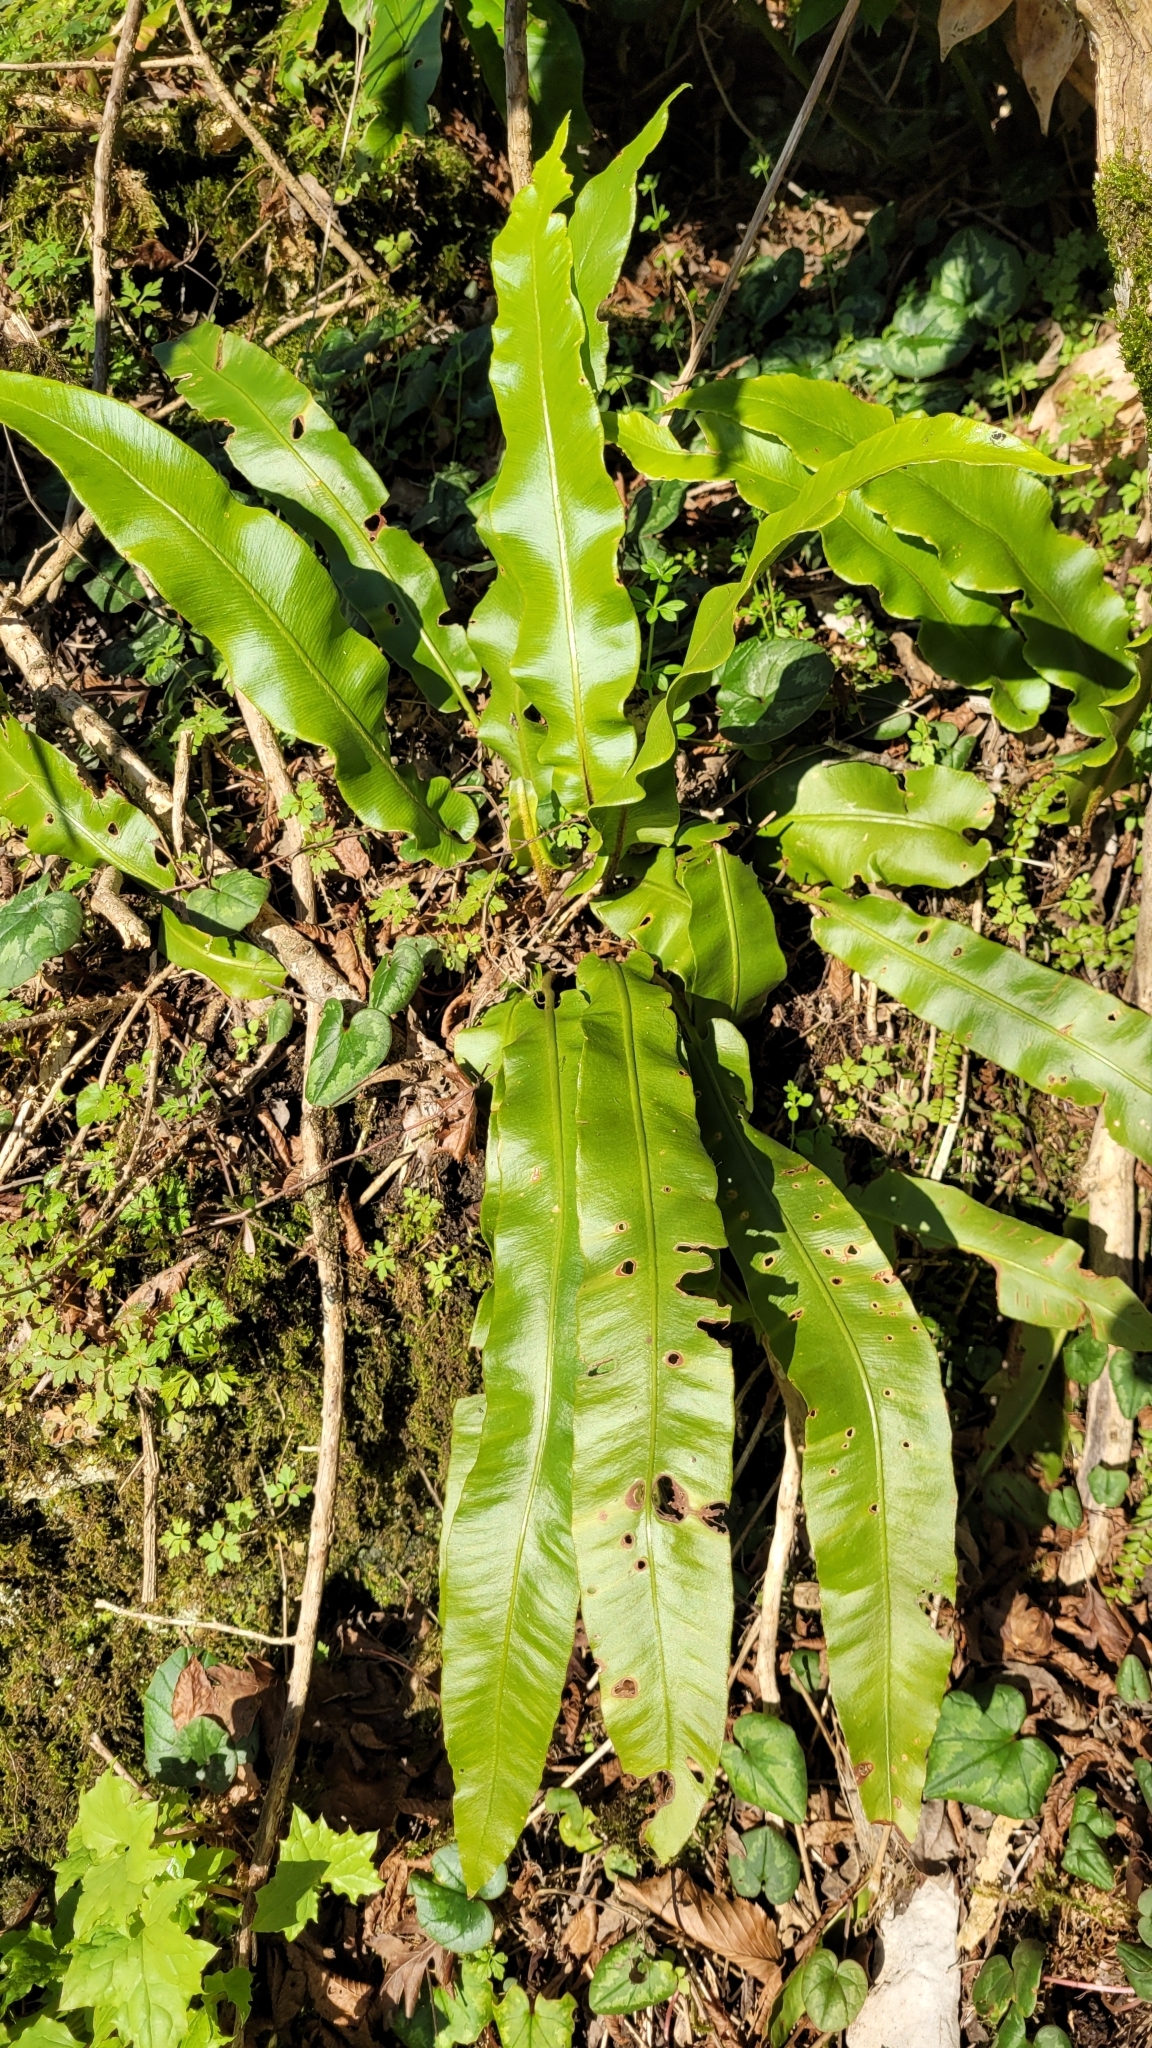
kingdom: Plantae
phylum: Tracheophyta
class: Polypodiopsida
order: Polypodiales
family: Aspleniaceae
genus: Asplenium
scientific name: Asplenium scolopendrium
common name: Hart's-tongue fern
